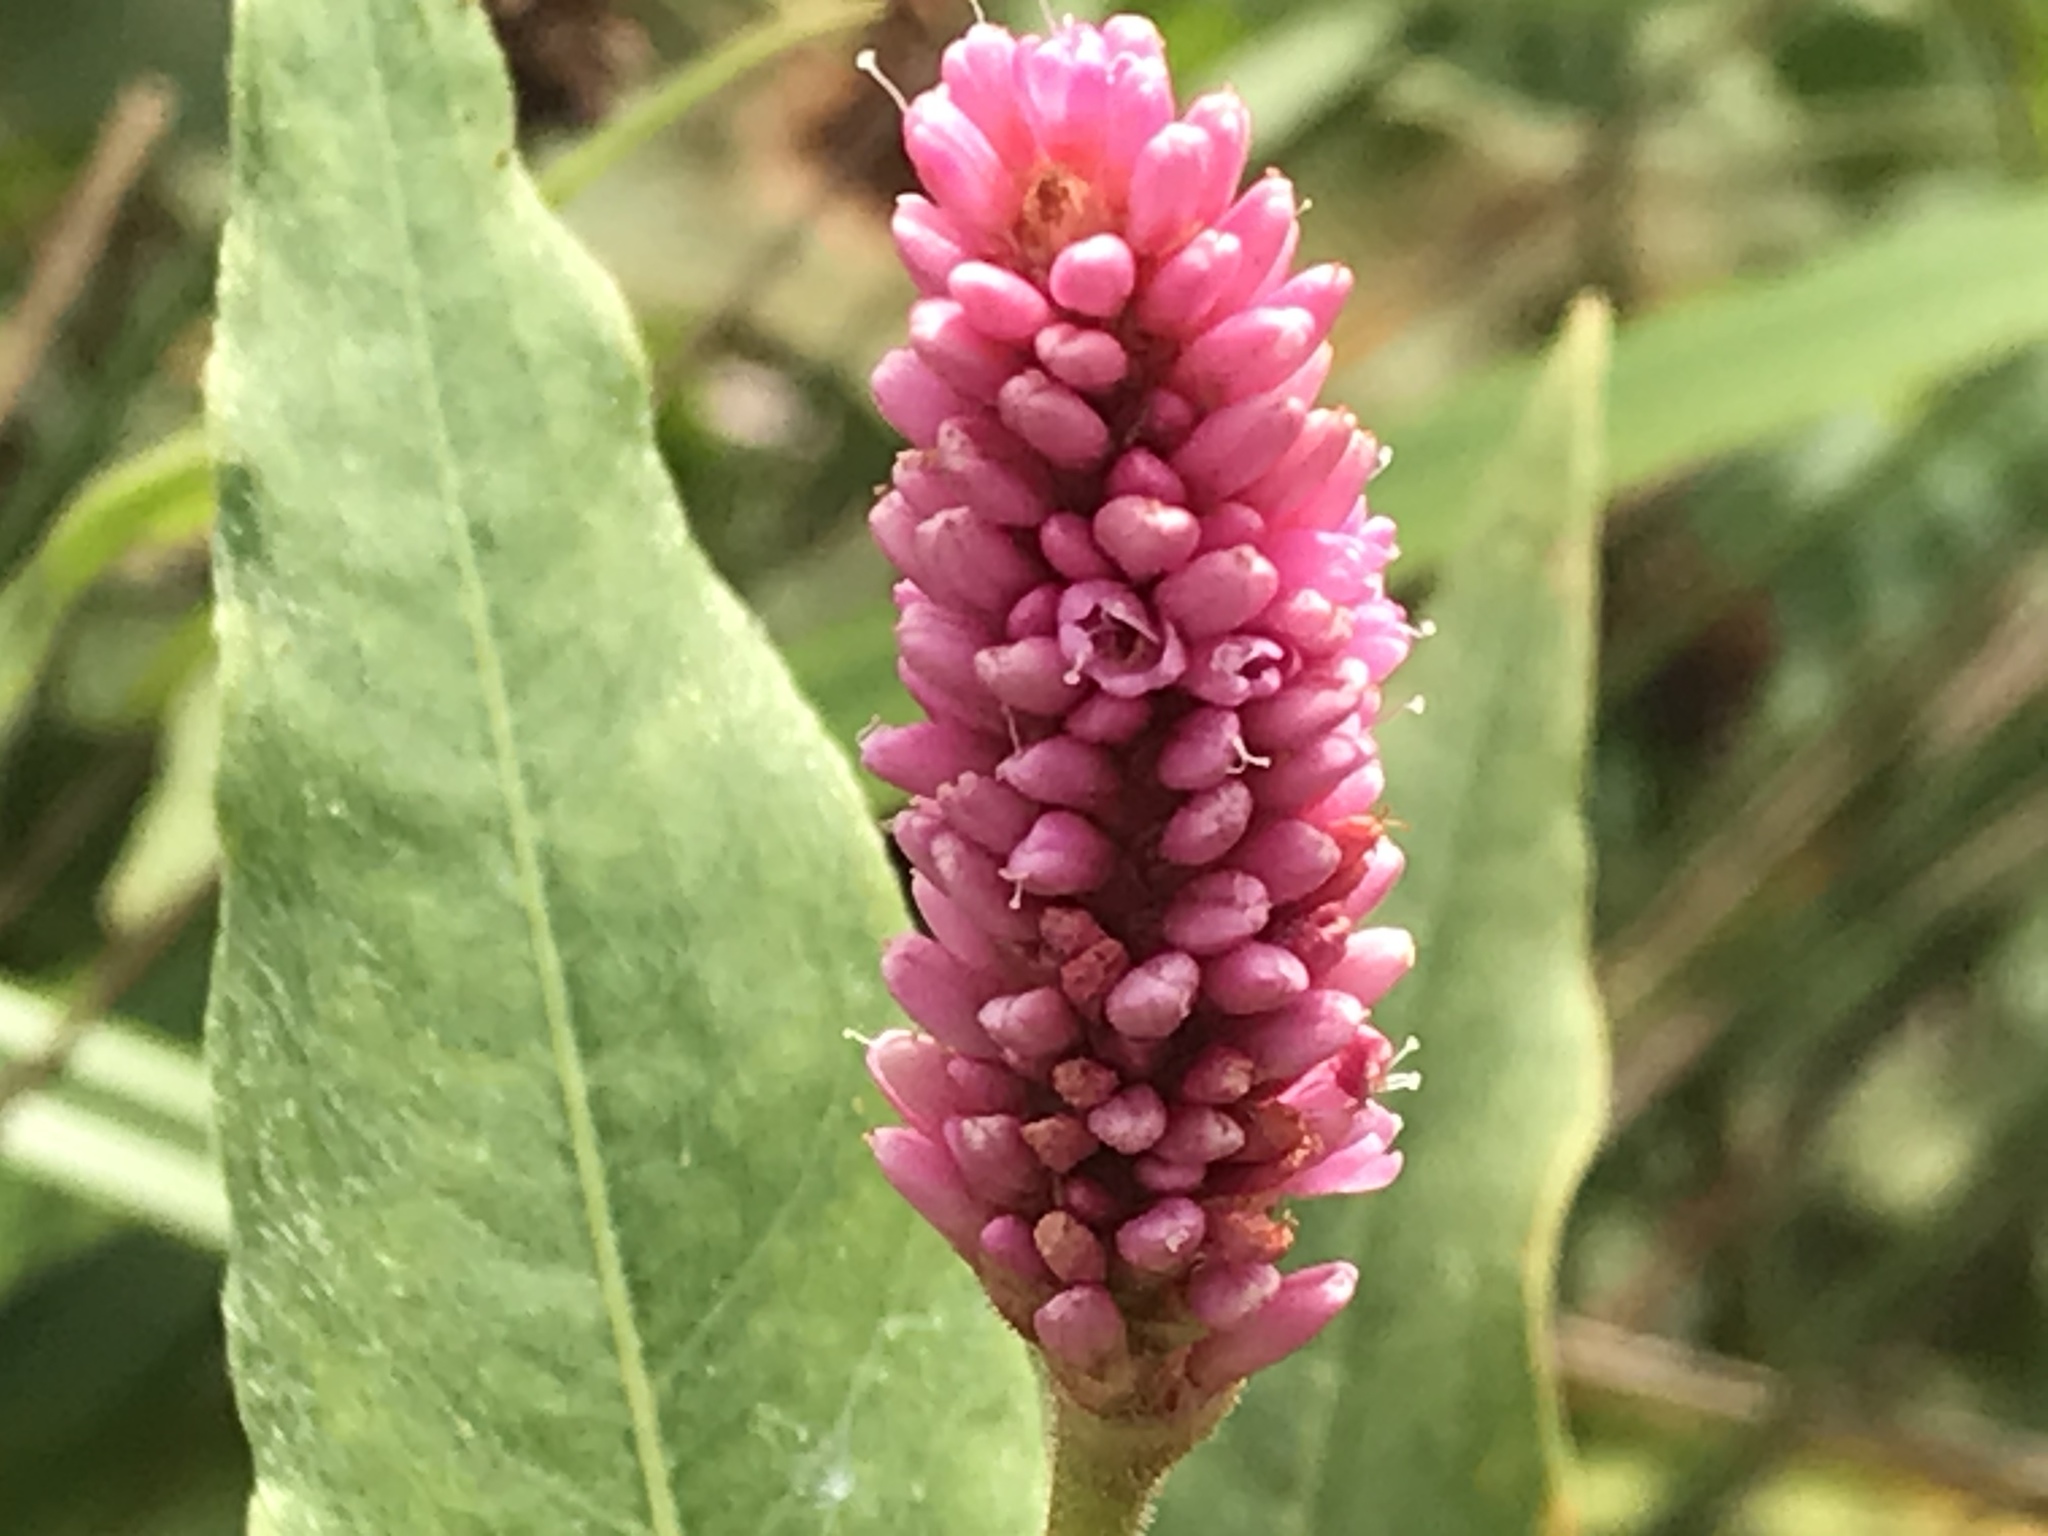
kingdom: Plantae
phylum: Tracheophyta
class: Magnoliopsida
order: Caryophyllales
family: Polygonaceae
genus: Persicaria
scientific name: Persicaria amphibia
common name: Amphibious bistort
